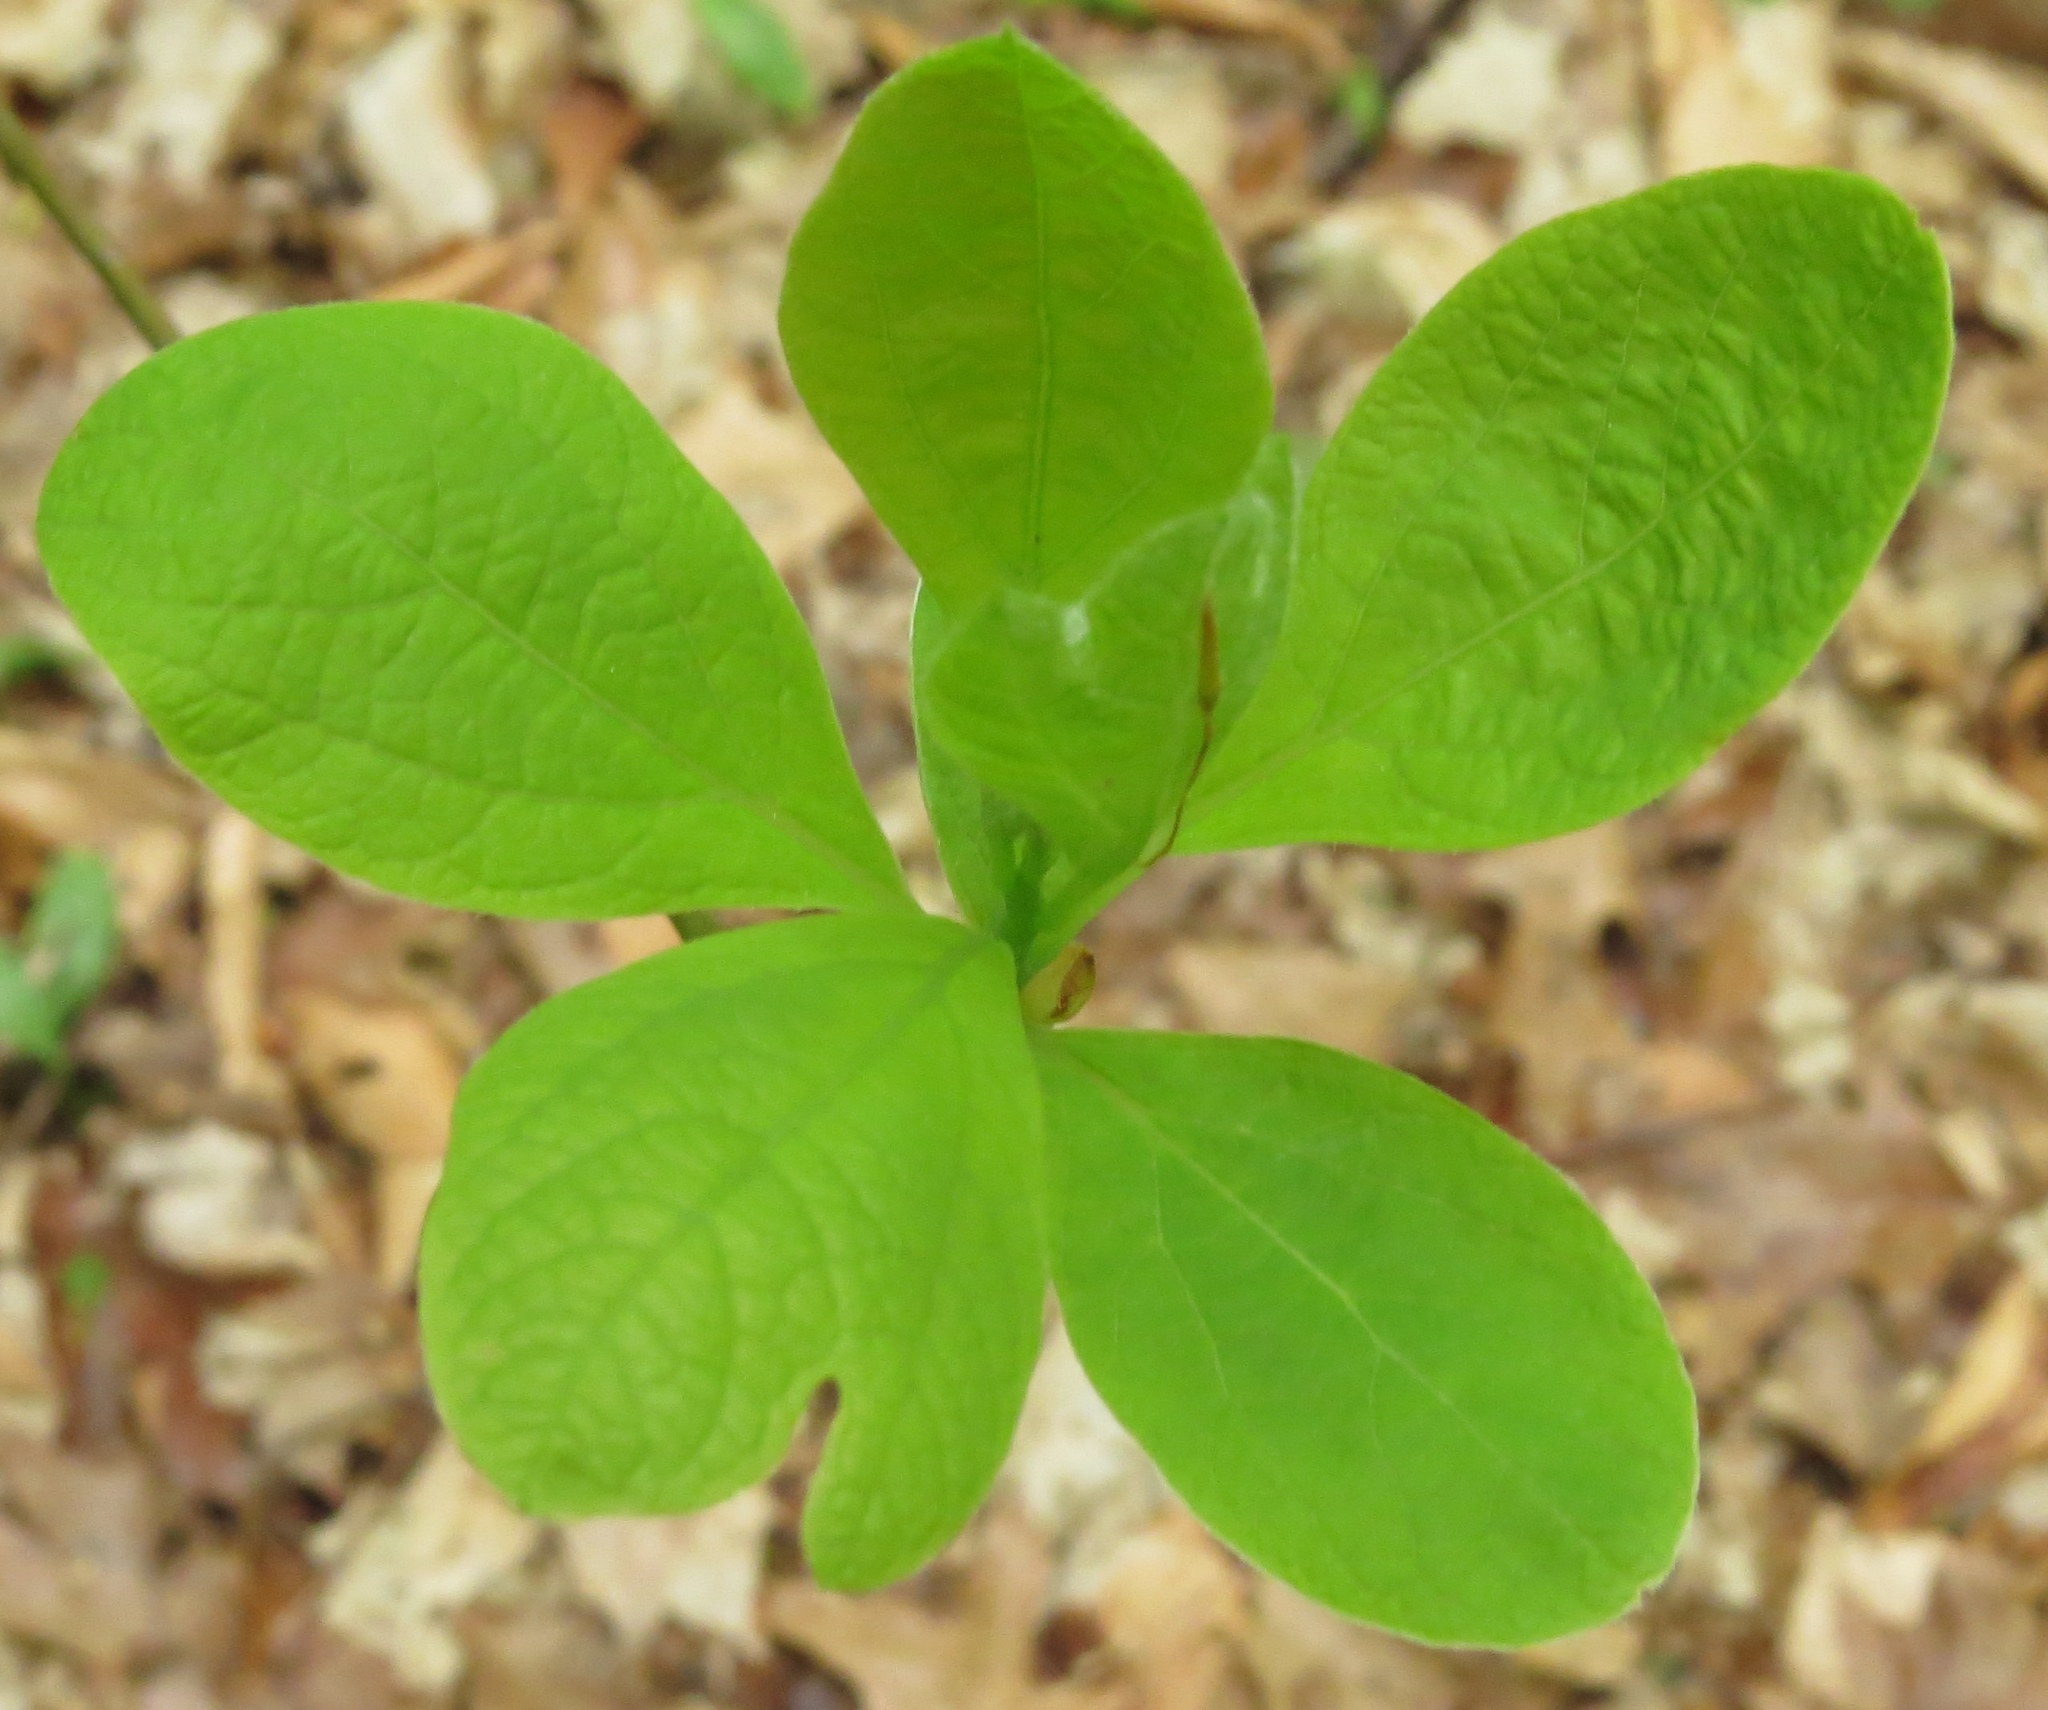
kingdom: Plantae
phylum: Tracheophyta
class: Magnoliopsida
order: Laurales
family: Lauraceae
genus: Sassafras
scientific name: Sassafras albidum
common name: Sassafras
